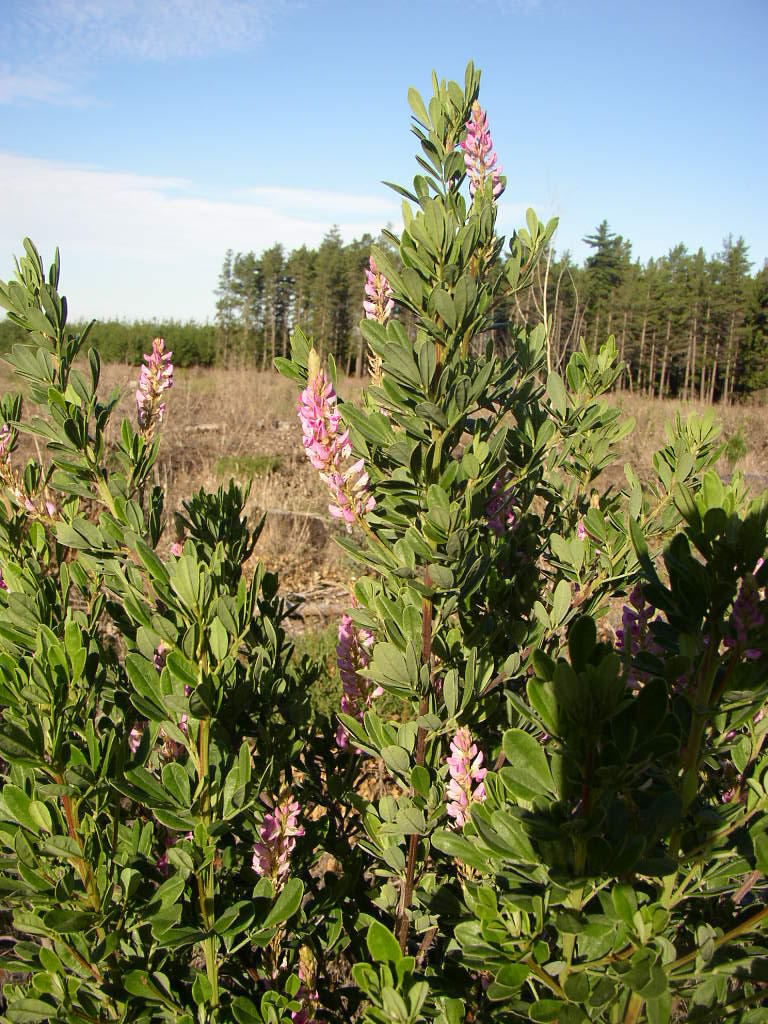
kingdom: Plantae
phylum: Tracheophyta
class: Magnoliopsida
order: Fabales
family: Fabaceae
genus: Indigofera
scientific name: Indigofera cytisoides
